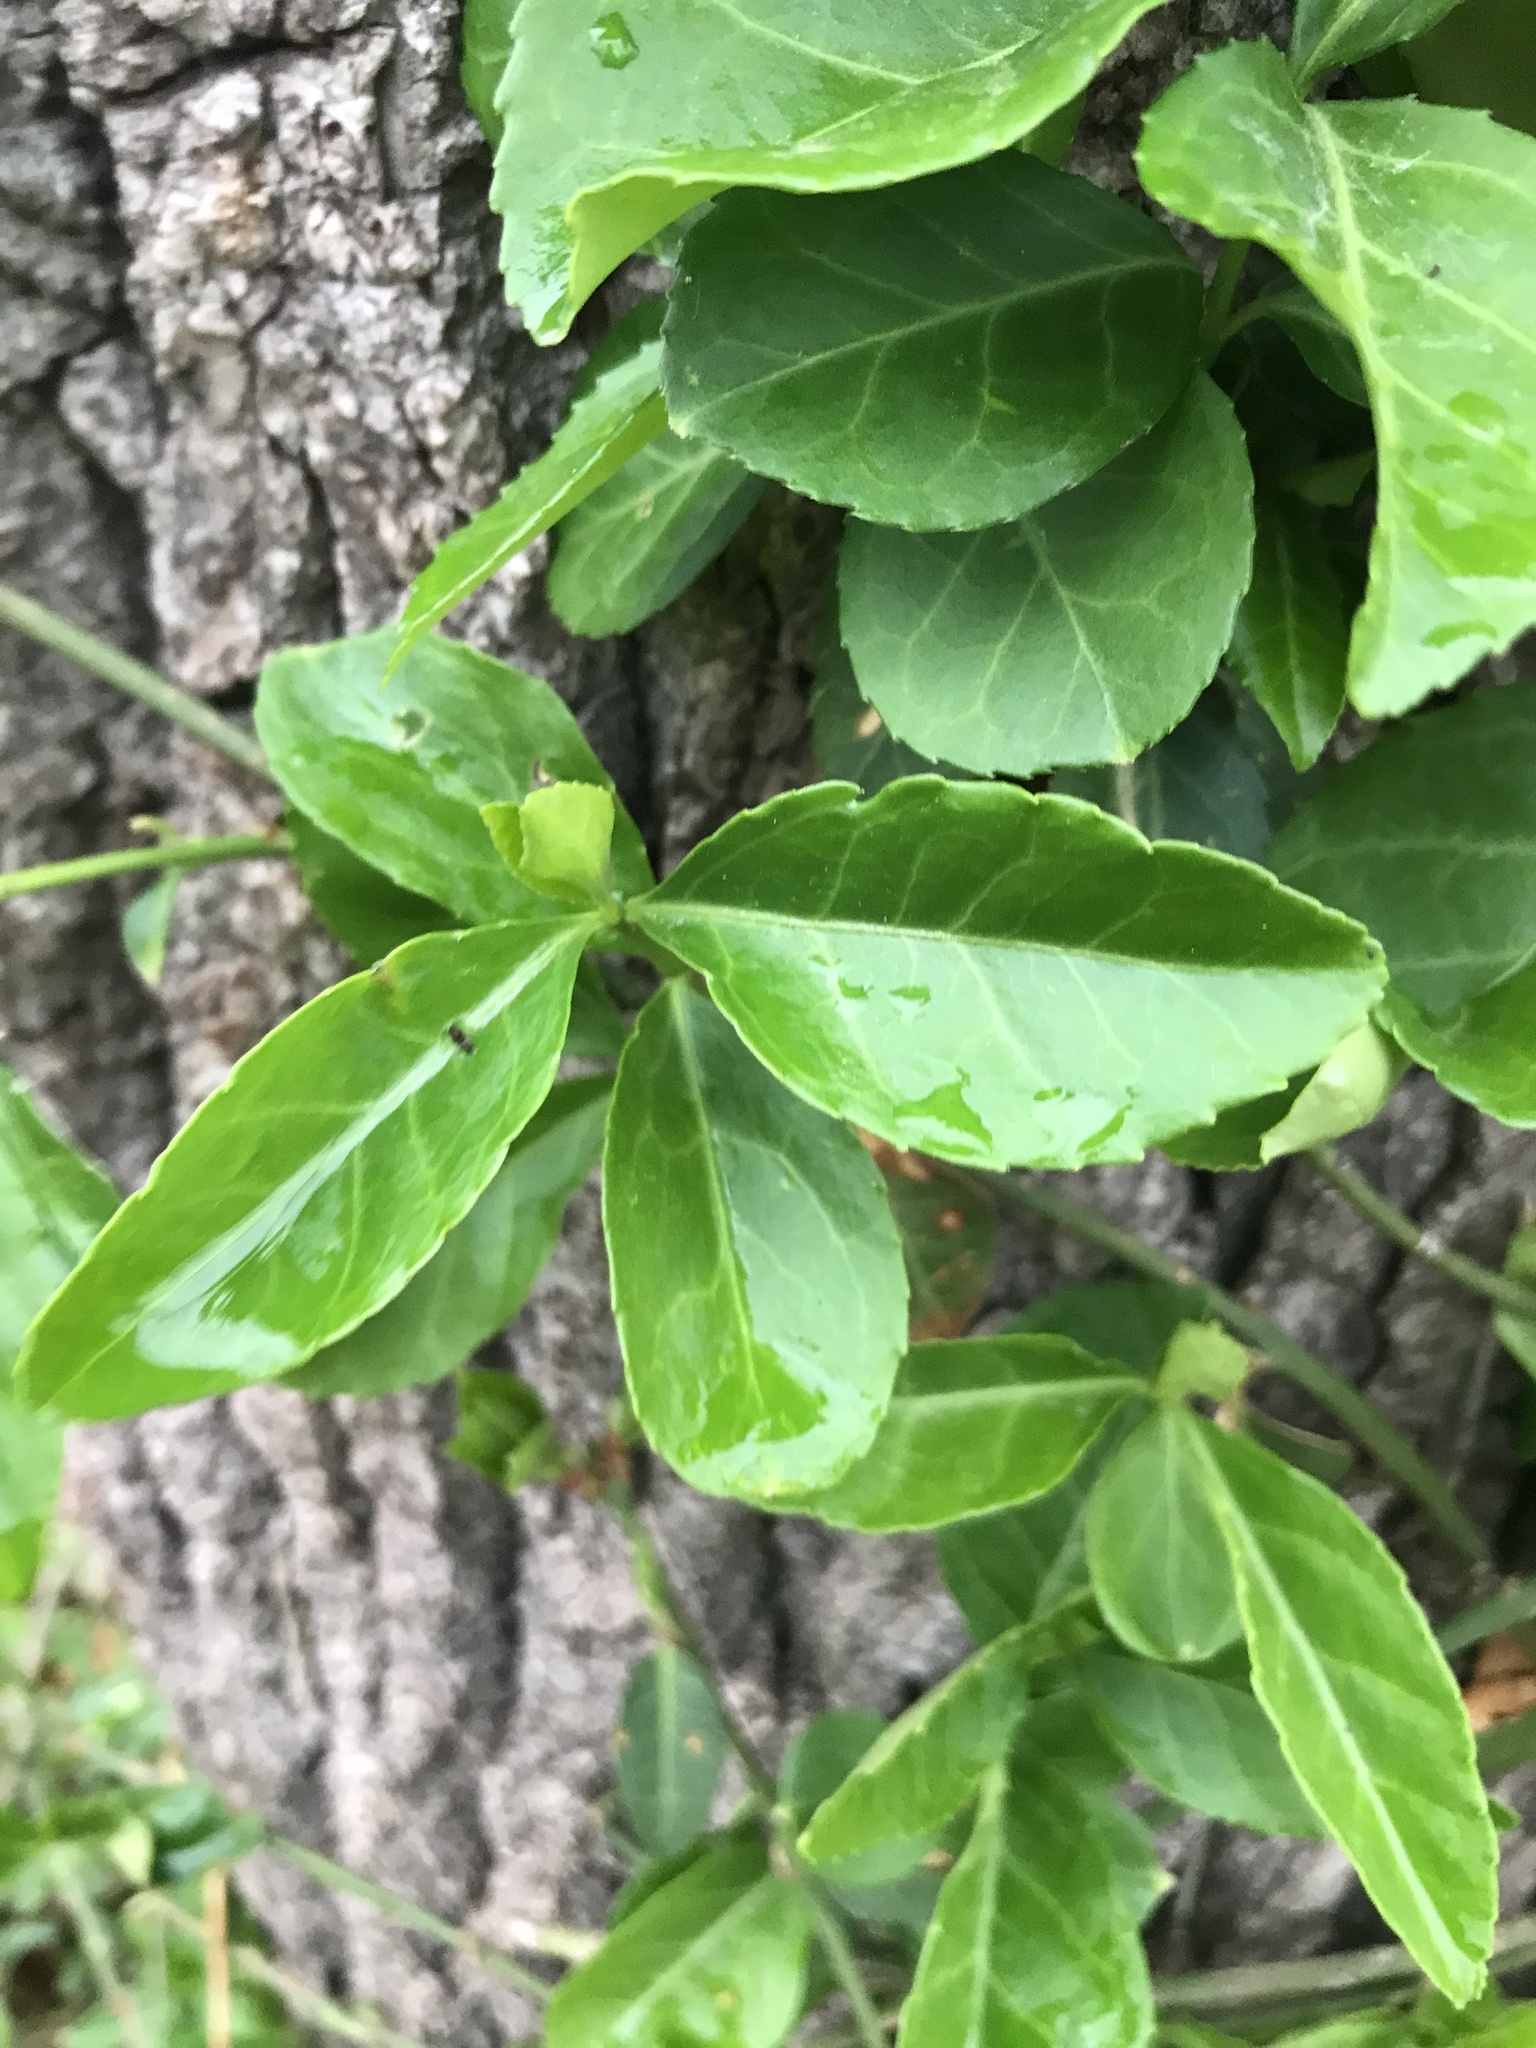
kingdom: Plantae
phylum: Tracheophyta
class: Magnoliopsida
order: Celastrales
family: Celastraceae
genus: Euonymus
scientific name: Euonymus fortunei
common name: Climbing euonymus
